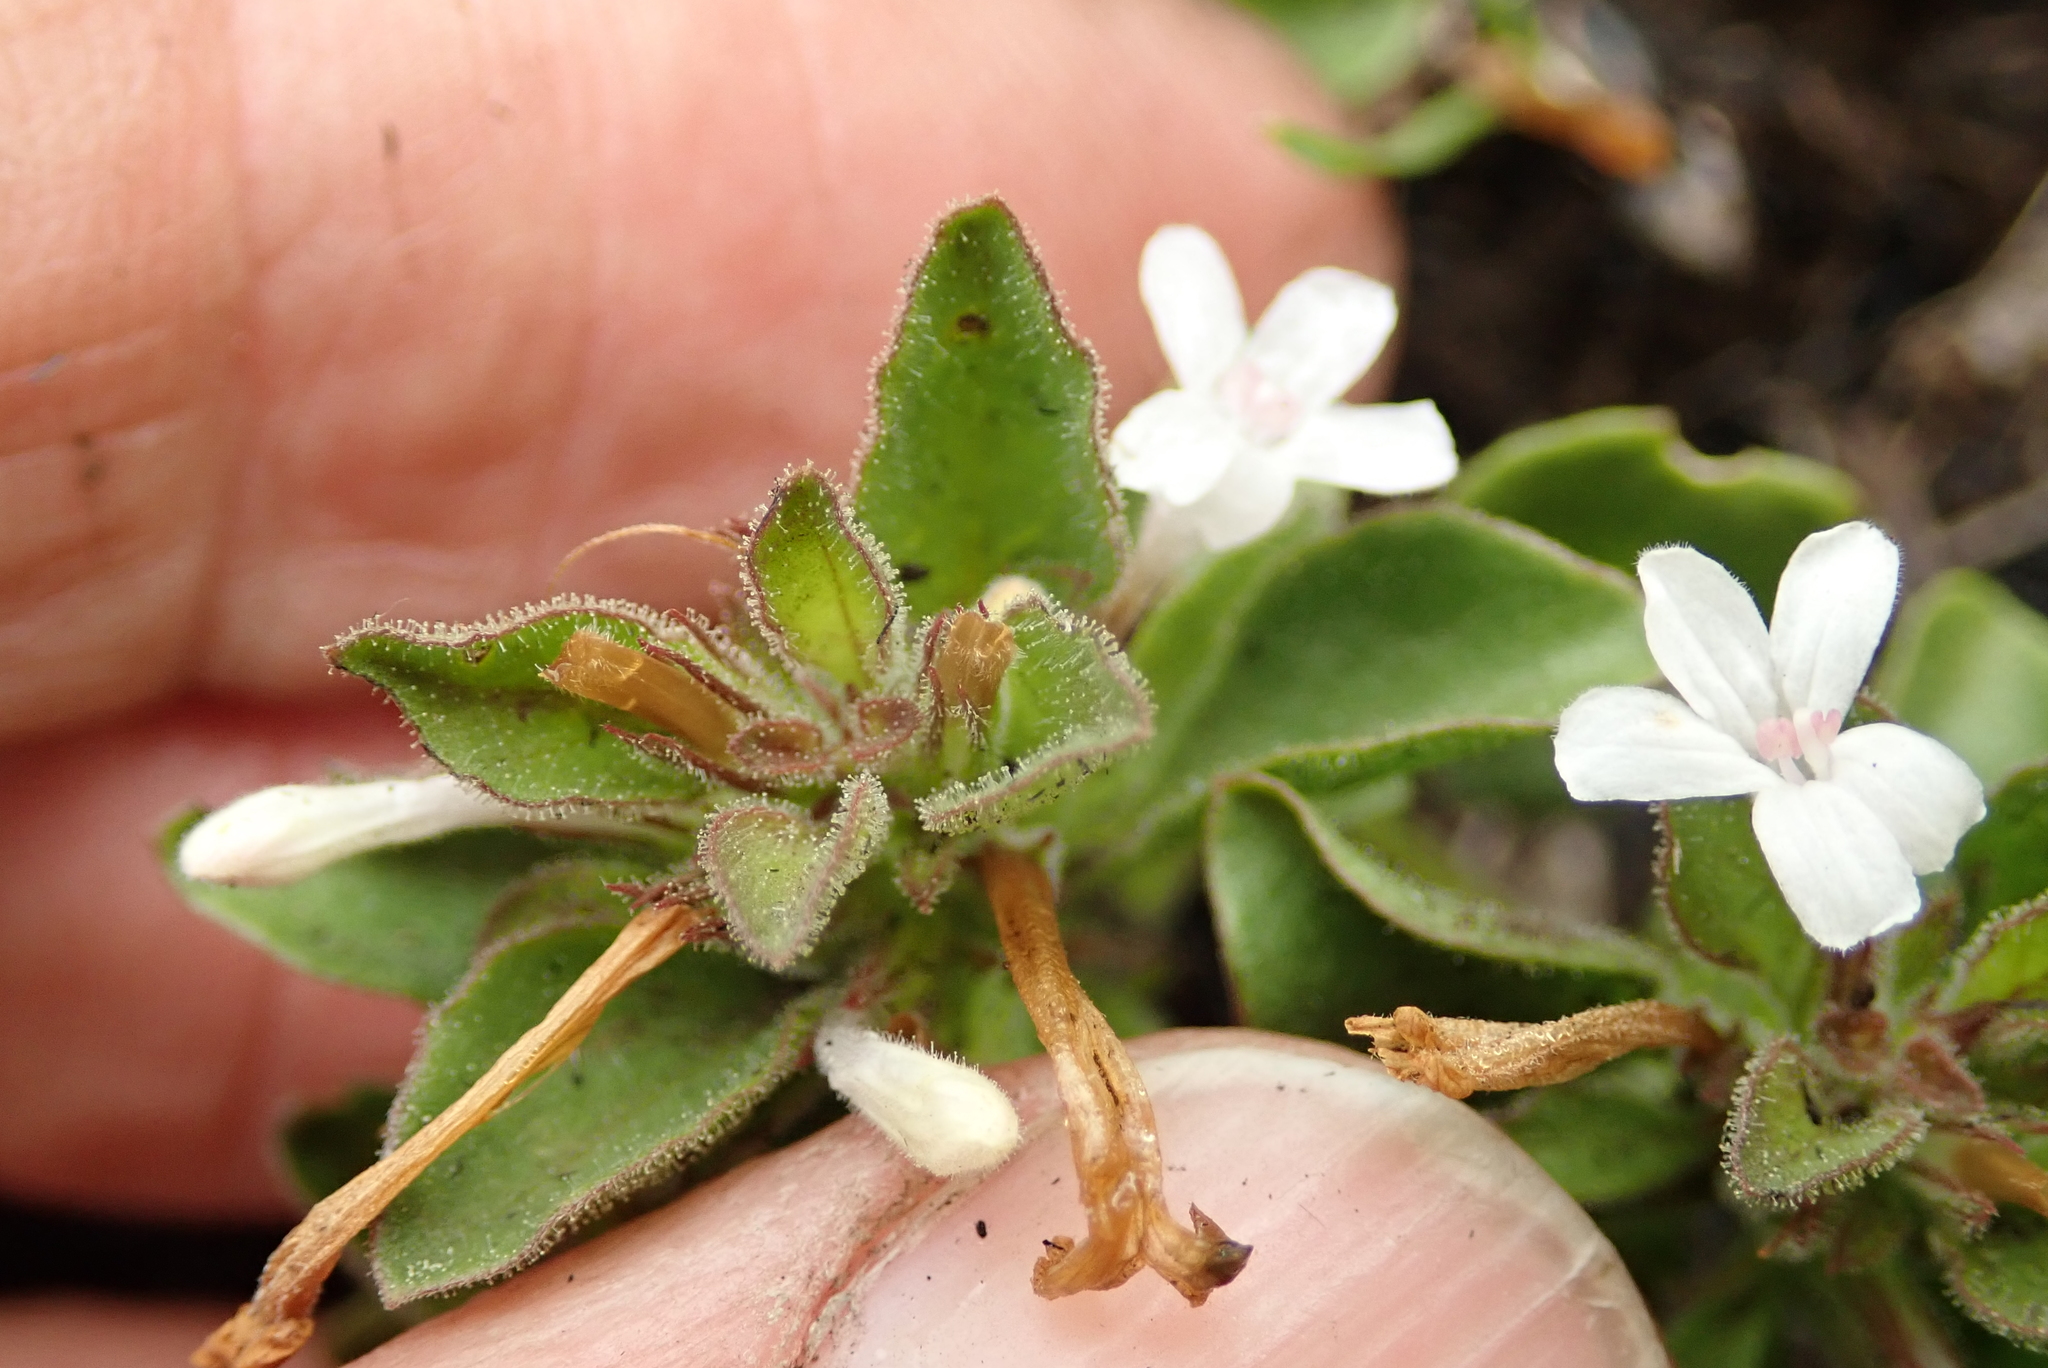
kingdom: Plantae
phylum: Tracheophyta
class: Magnoliopsida
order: Lamiales
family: Acanthaceae
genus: Dyschoriste
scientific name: Dyschoriste setigera
